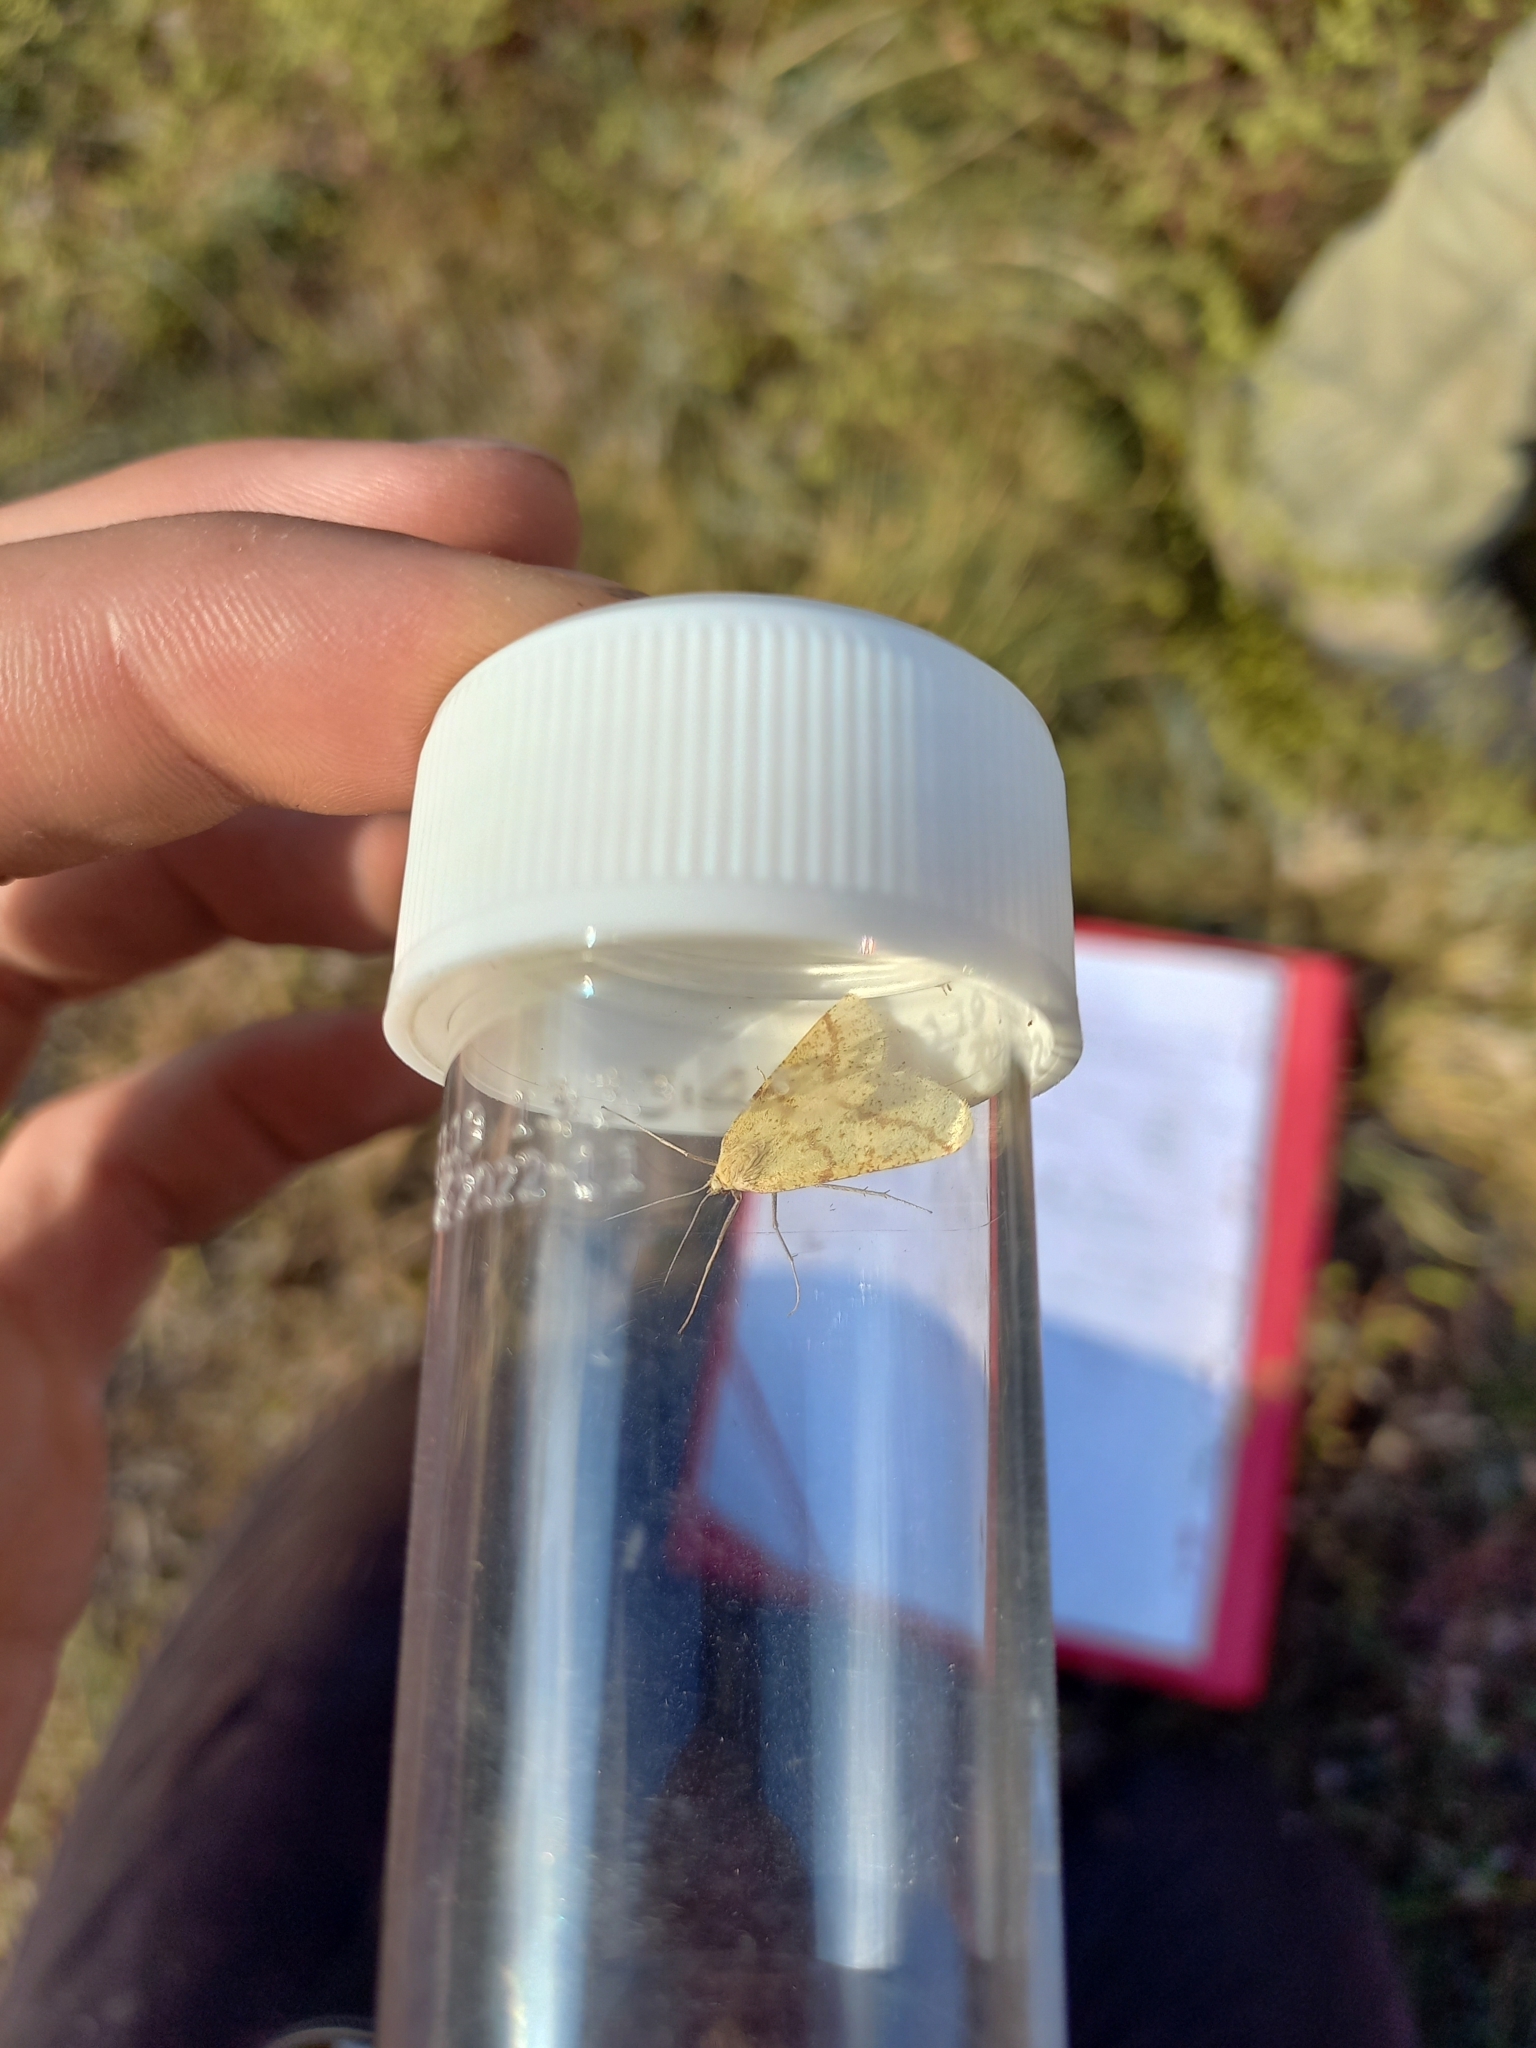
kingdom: Animalia
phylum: Arthropoda
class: Insecta
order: Lepidoptera
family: Geometridae
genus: Aspitates
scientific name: Aspitates ochrearia
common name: Yellow belle
